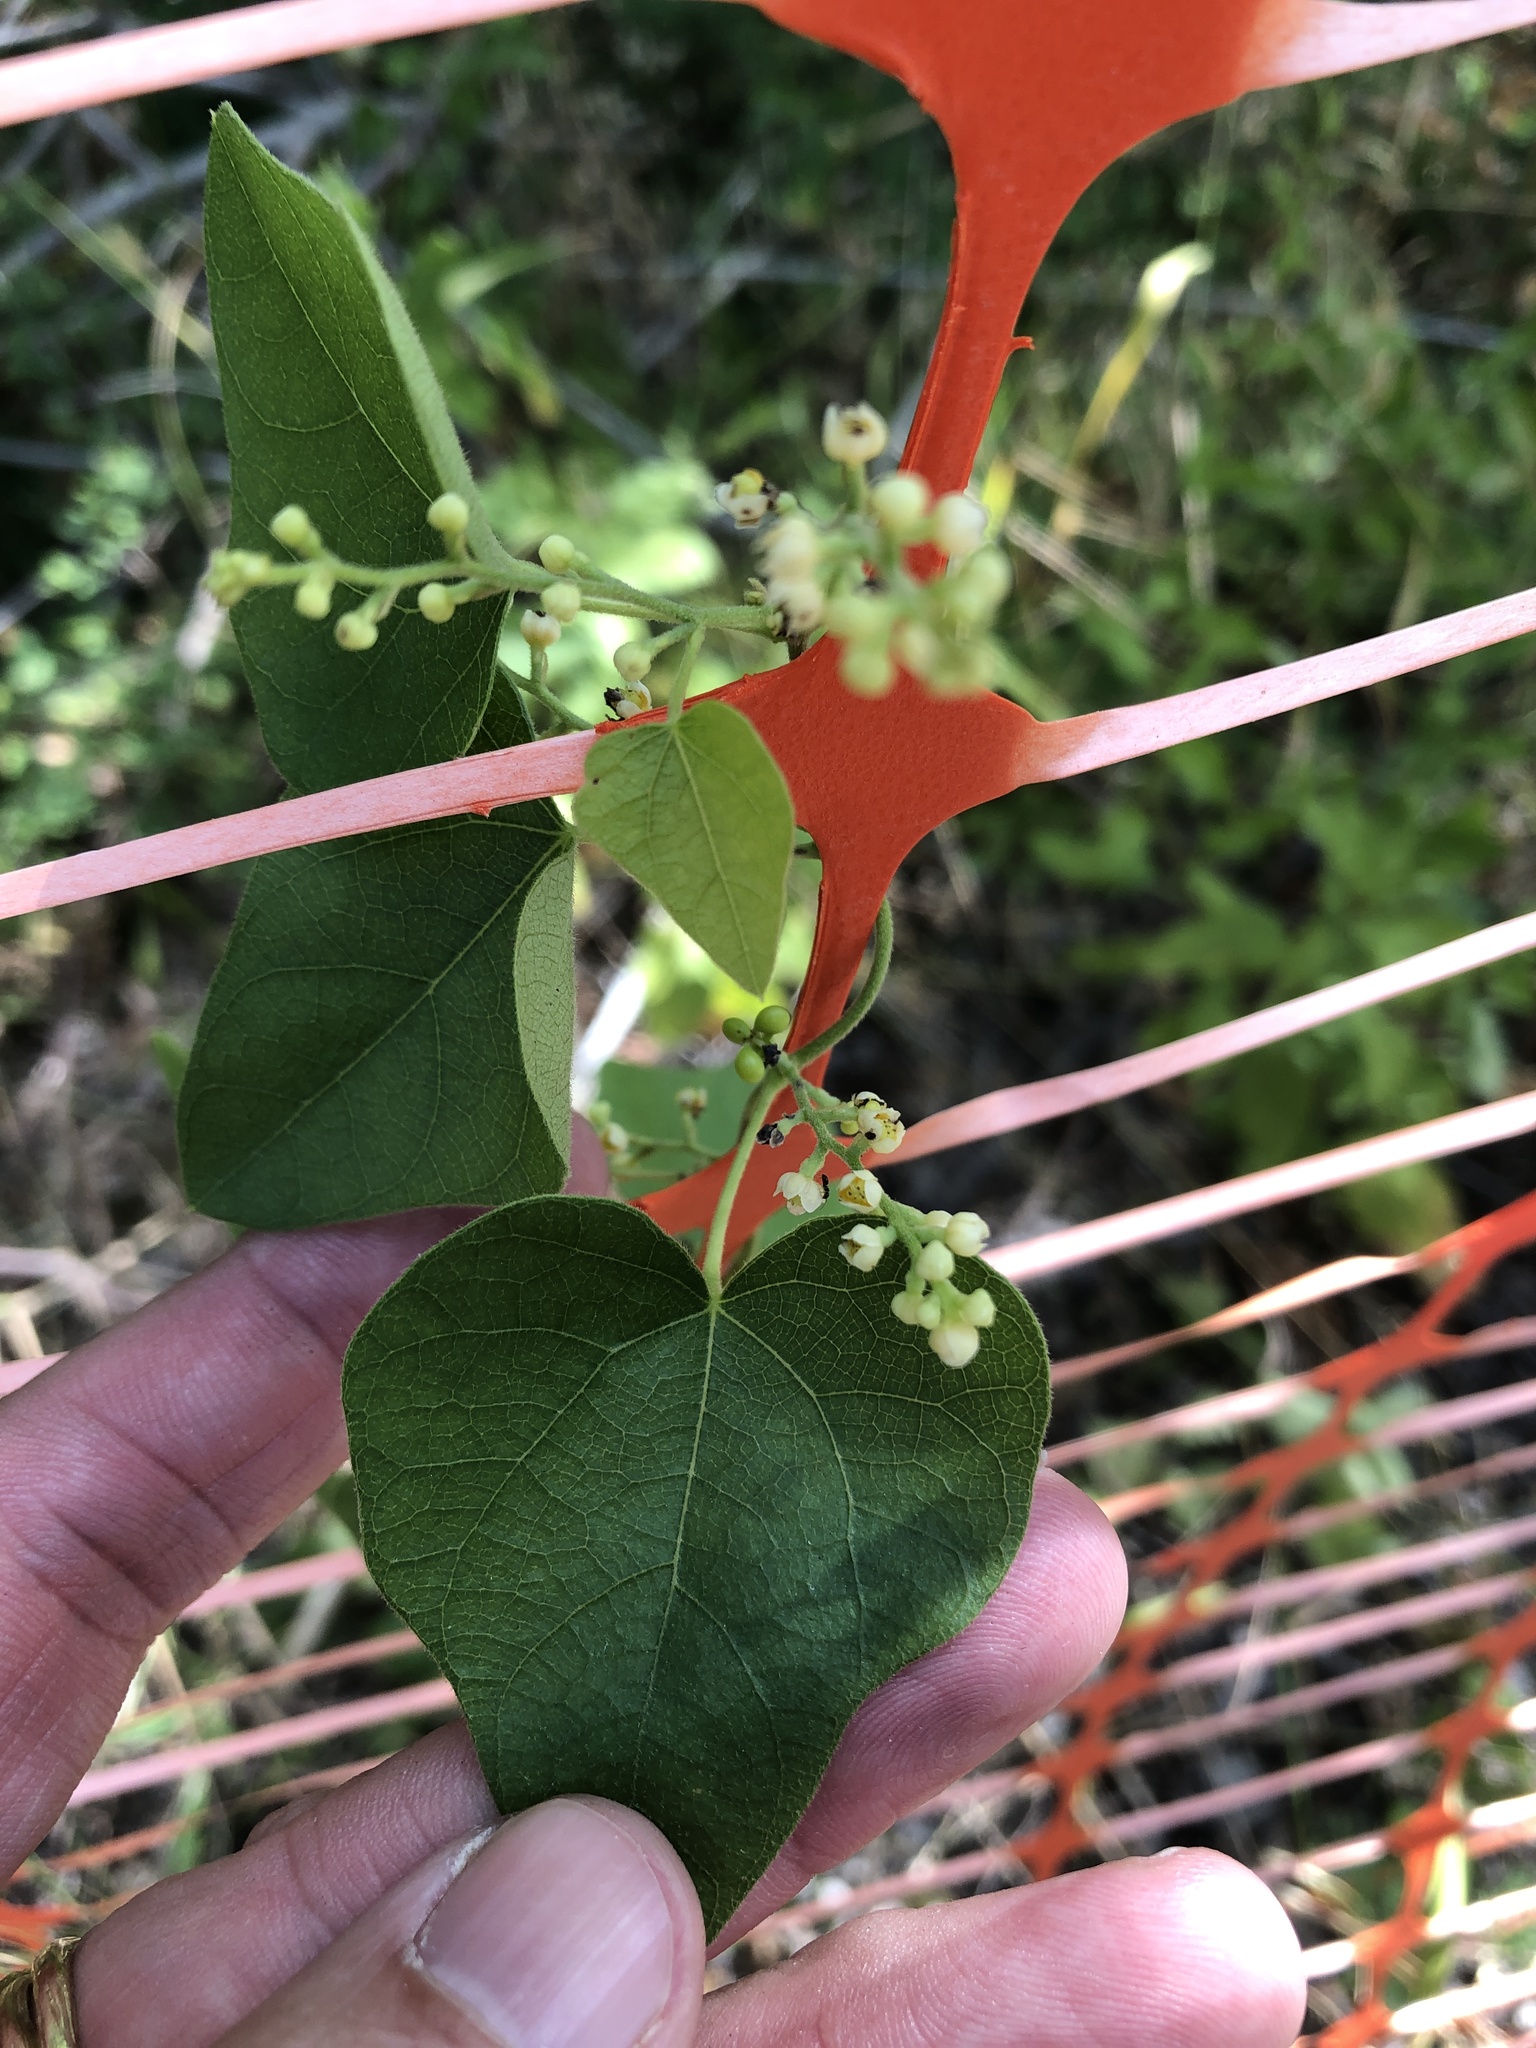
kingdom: Plantae
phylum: Tracheophyta
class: Magnoliopsida
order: Ranunculales
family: Menispermaceae
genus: Cocculus
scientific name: Cocculus carolinus
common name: Carolina moonseed
